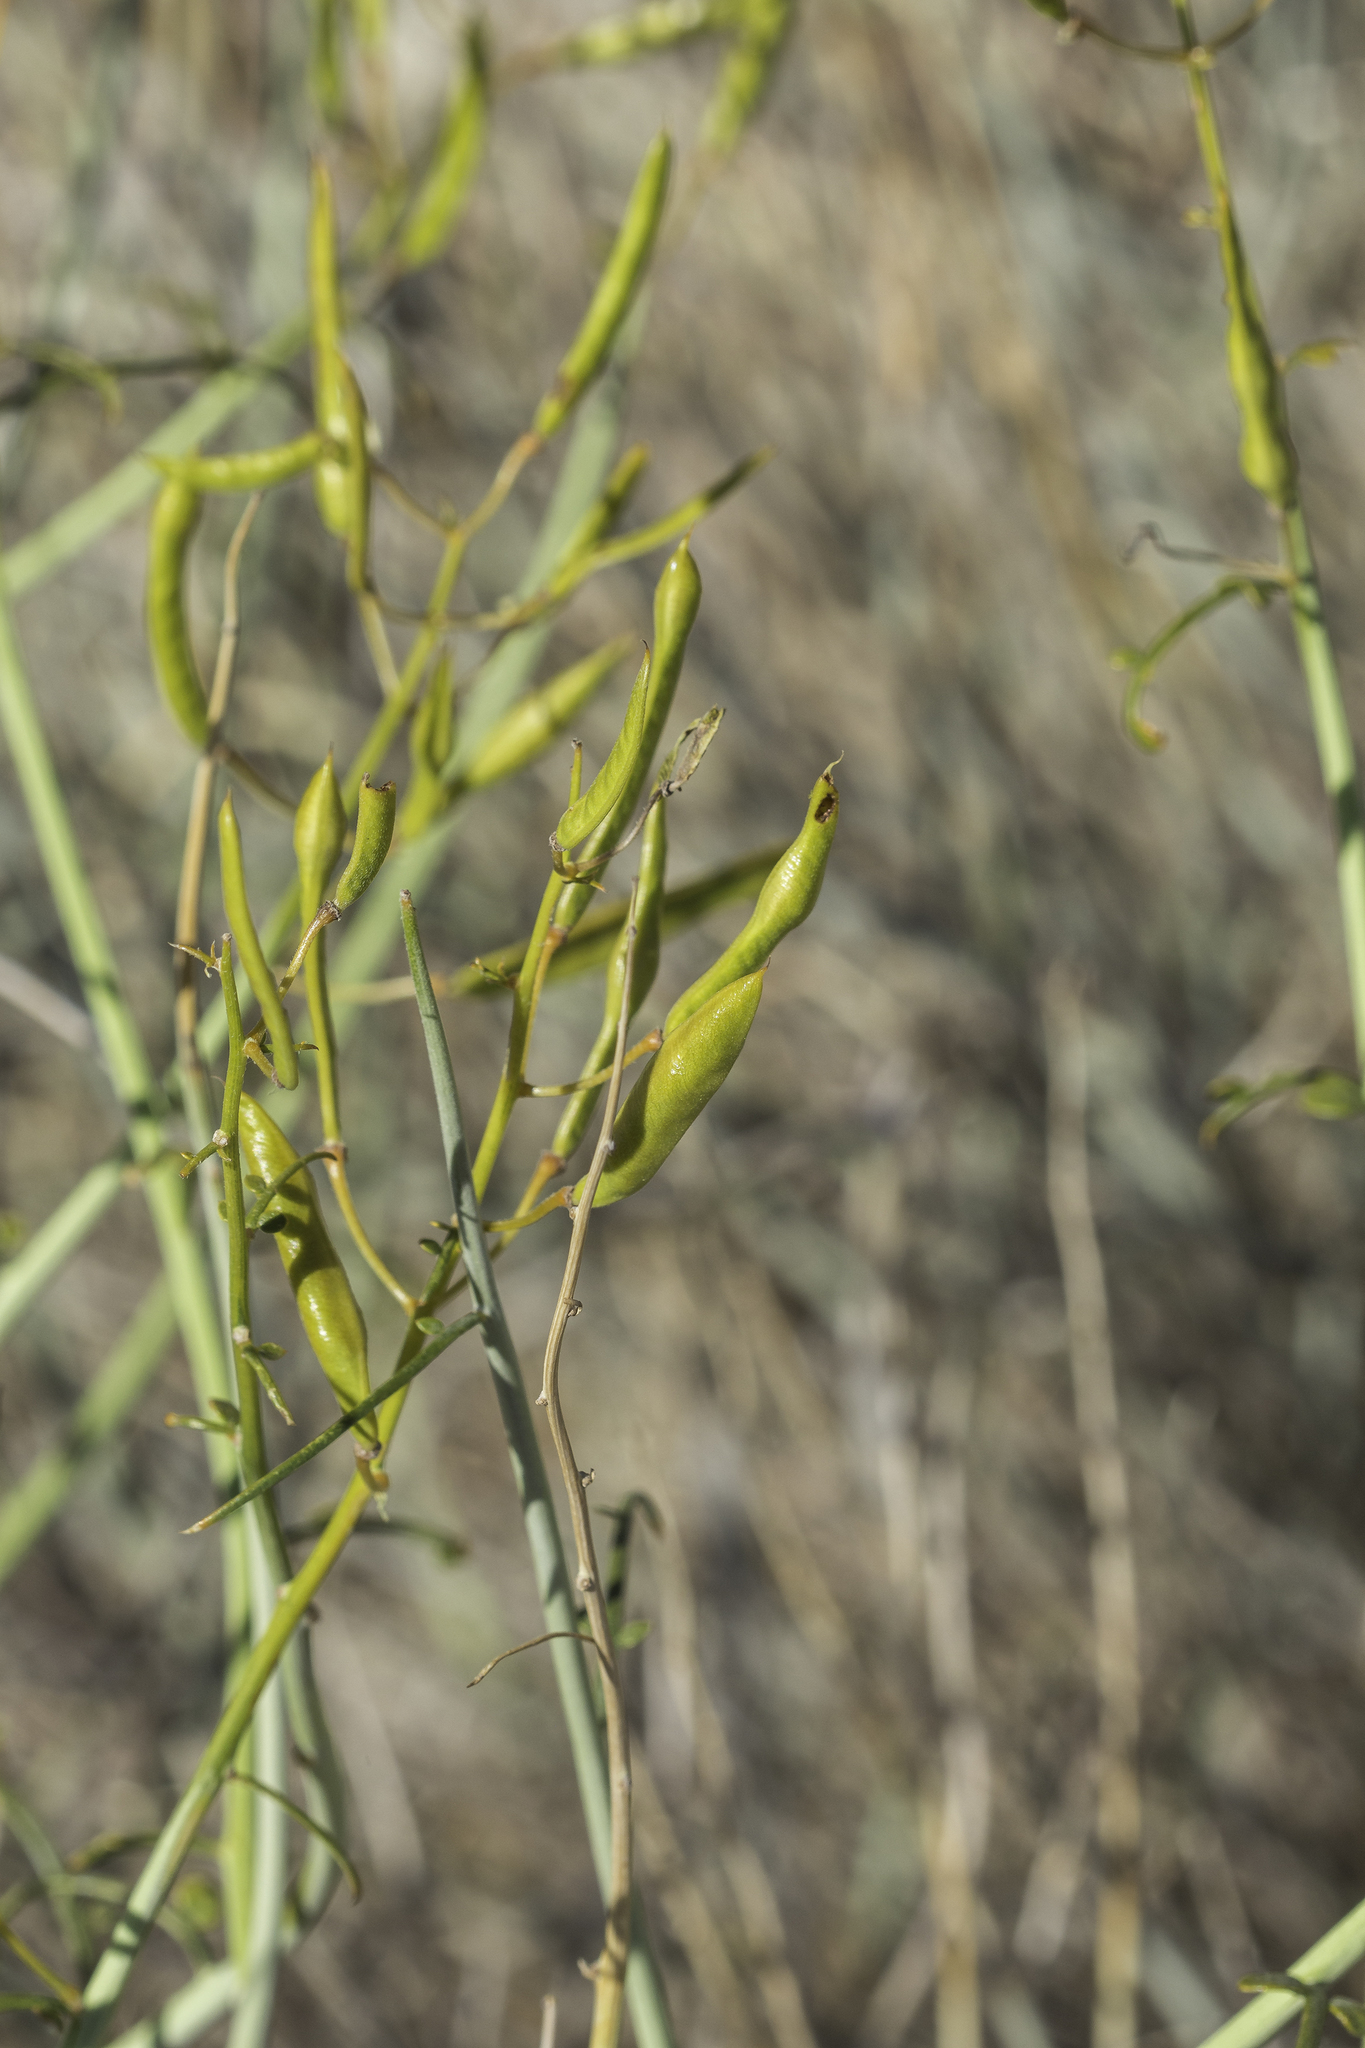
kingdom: Plantae
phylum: Tracheophyta
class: Magnoliopsida
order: Fabales
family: Fabaceae
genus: Senna
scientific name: Senna armata
